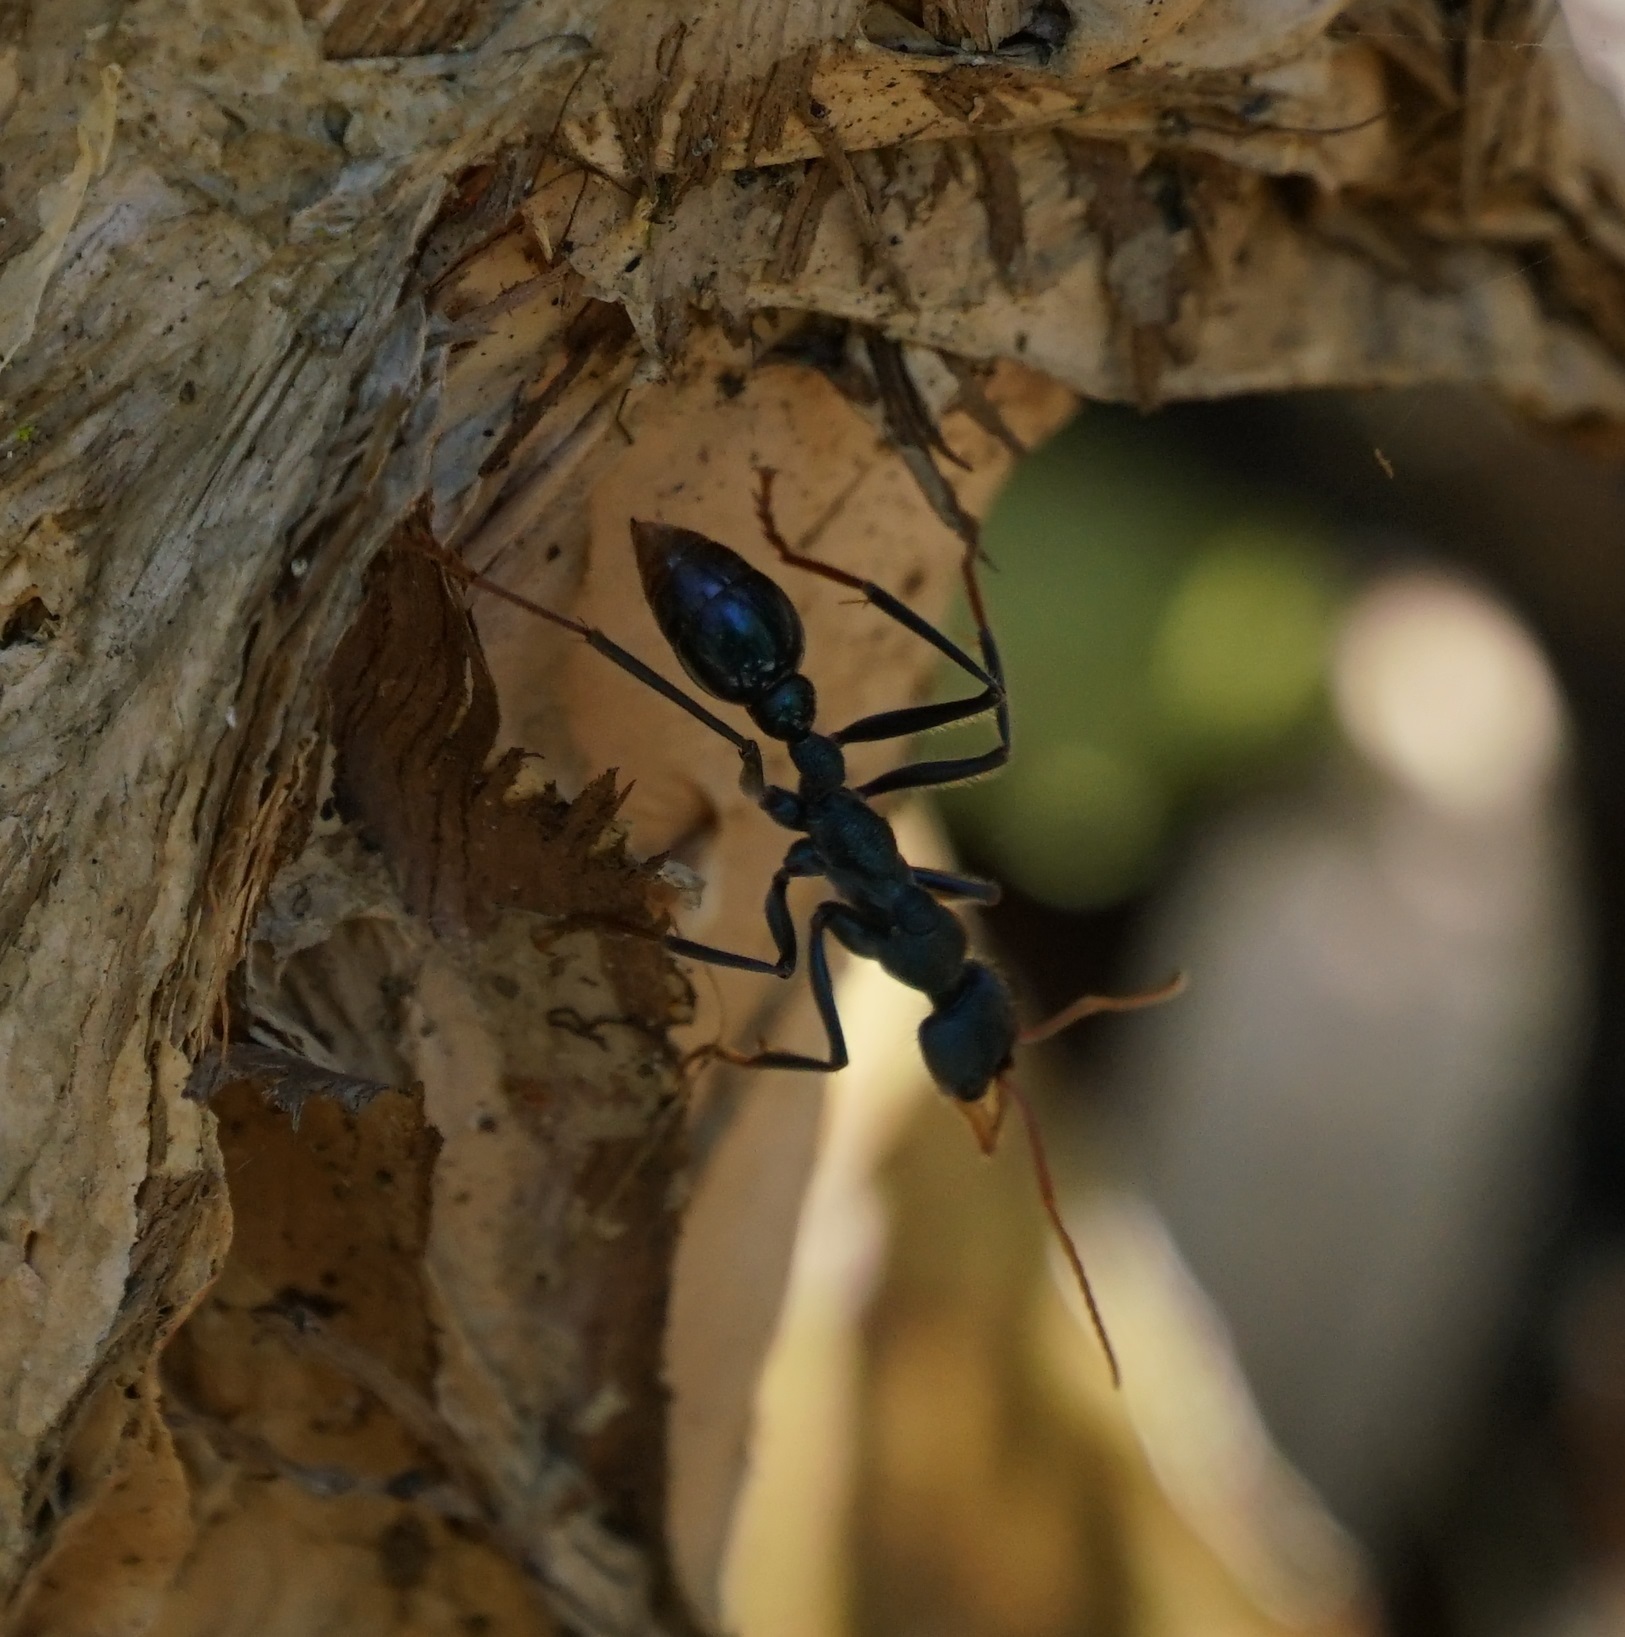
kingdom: Animalia
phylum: Arthropoda
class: Insecta
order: Hymenoptera
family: Formicidae
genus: Myrmecia
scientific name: Myrmecia tarsata
